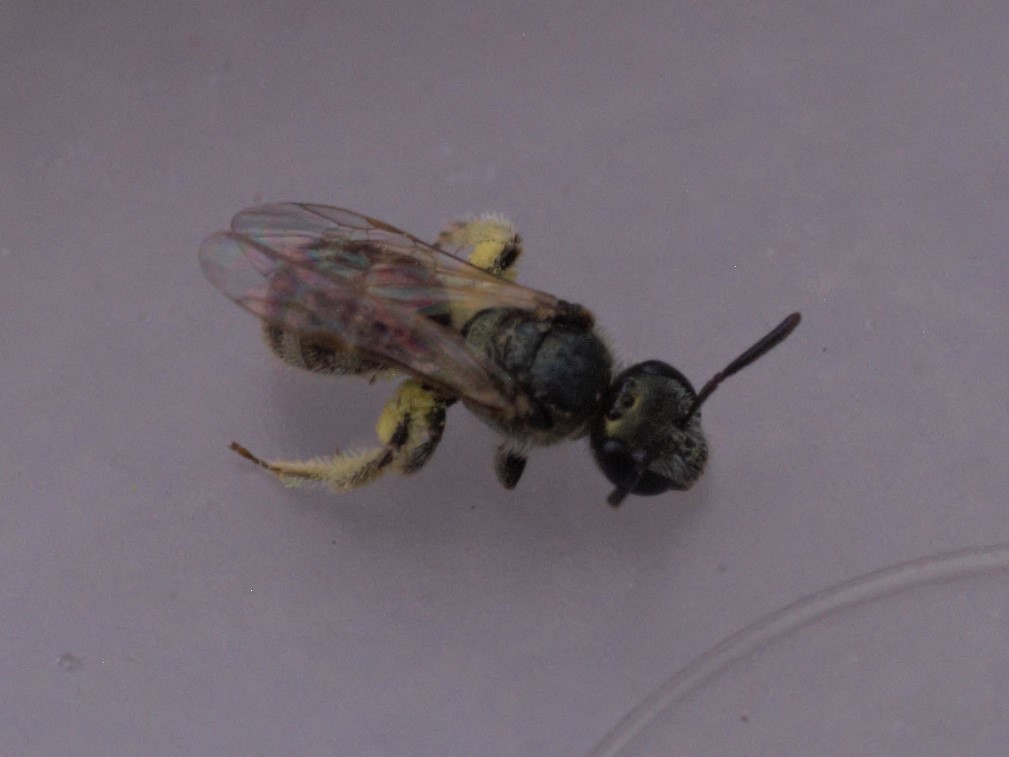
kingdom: Animalia
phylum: Arthropoda
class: Insecta
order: Hymenoptera
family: Halictidae
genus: Dialictus
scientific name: Dialictus
